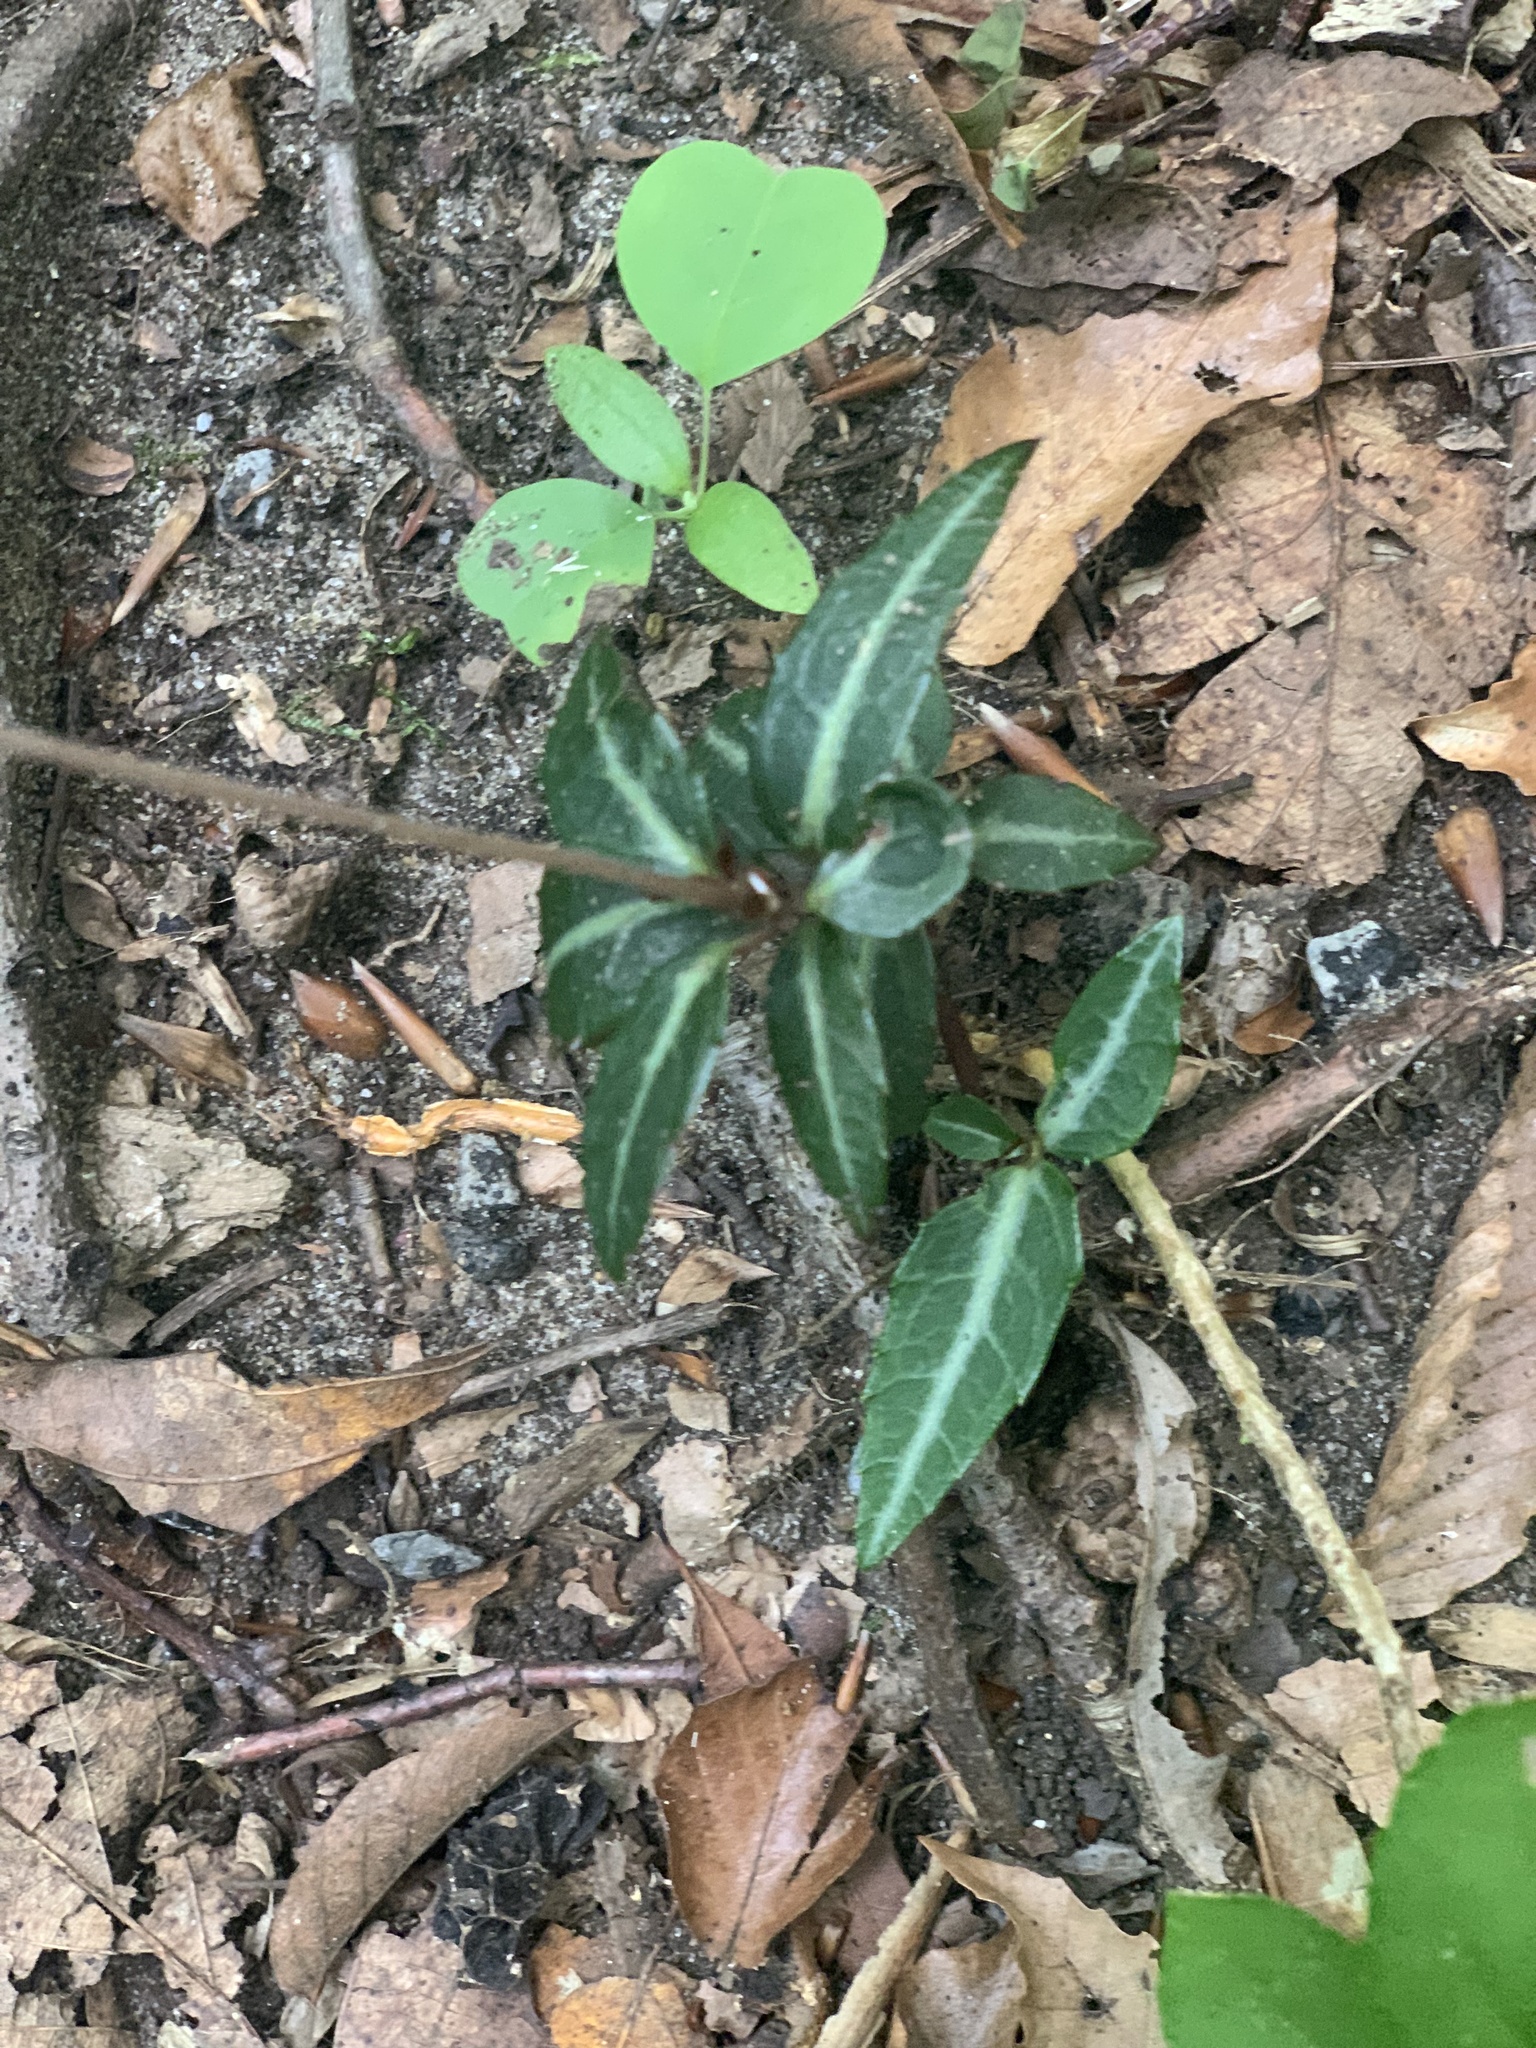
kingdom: Plantae
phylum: Tracheophyta
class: Magnoliopsida
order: Ericales
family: Ericaceae
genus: Chimaphila
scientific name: Chimaphila maculata
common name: Spotted pipsissewa
